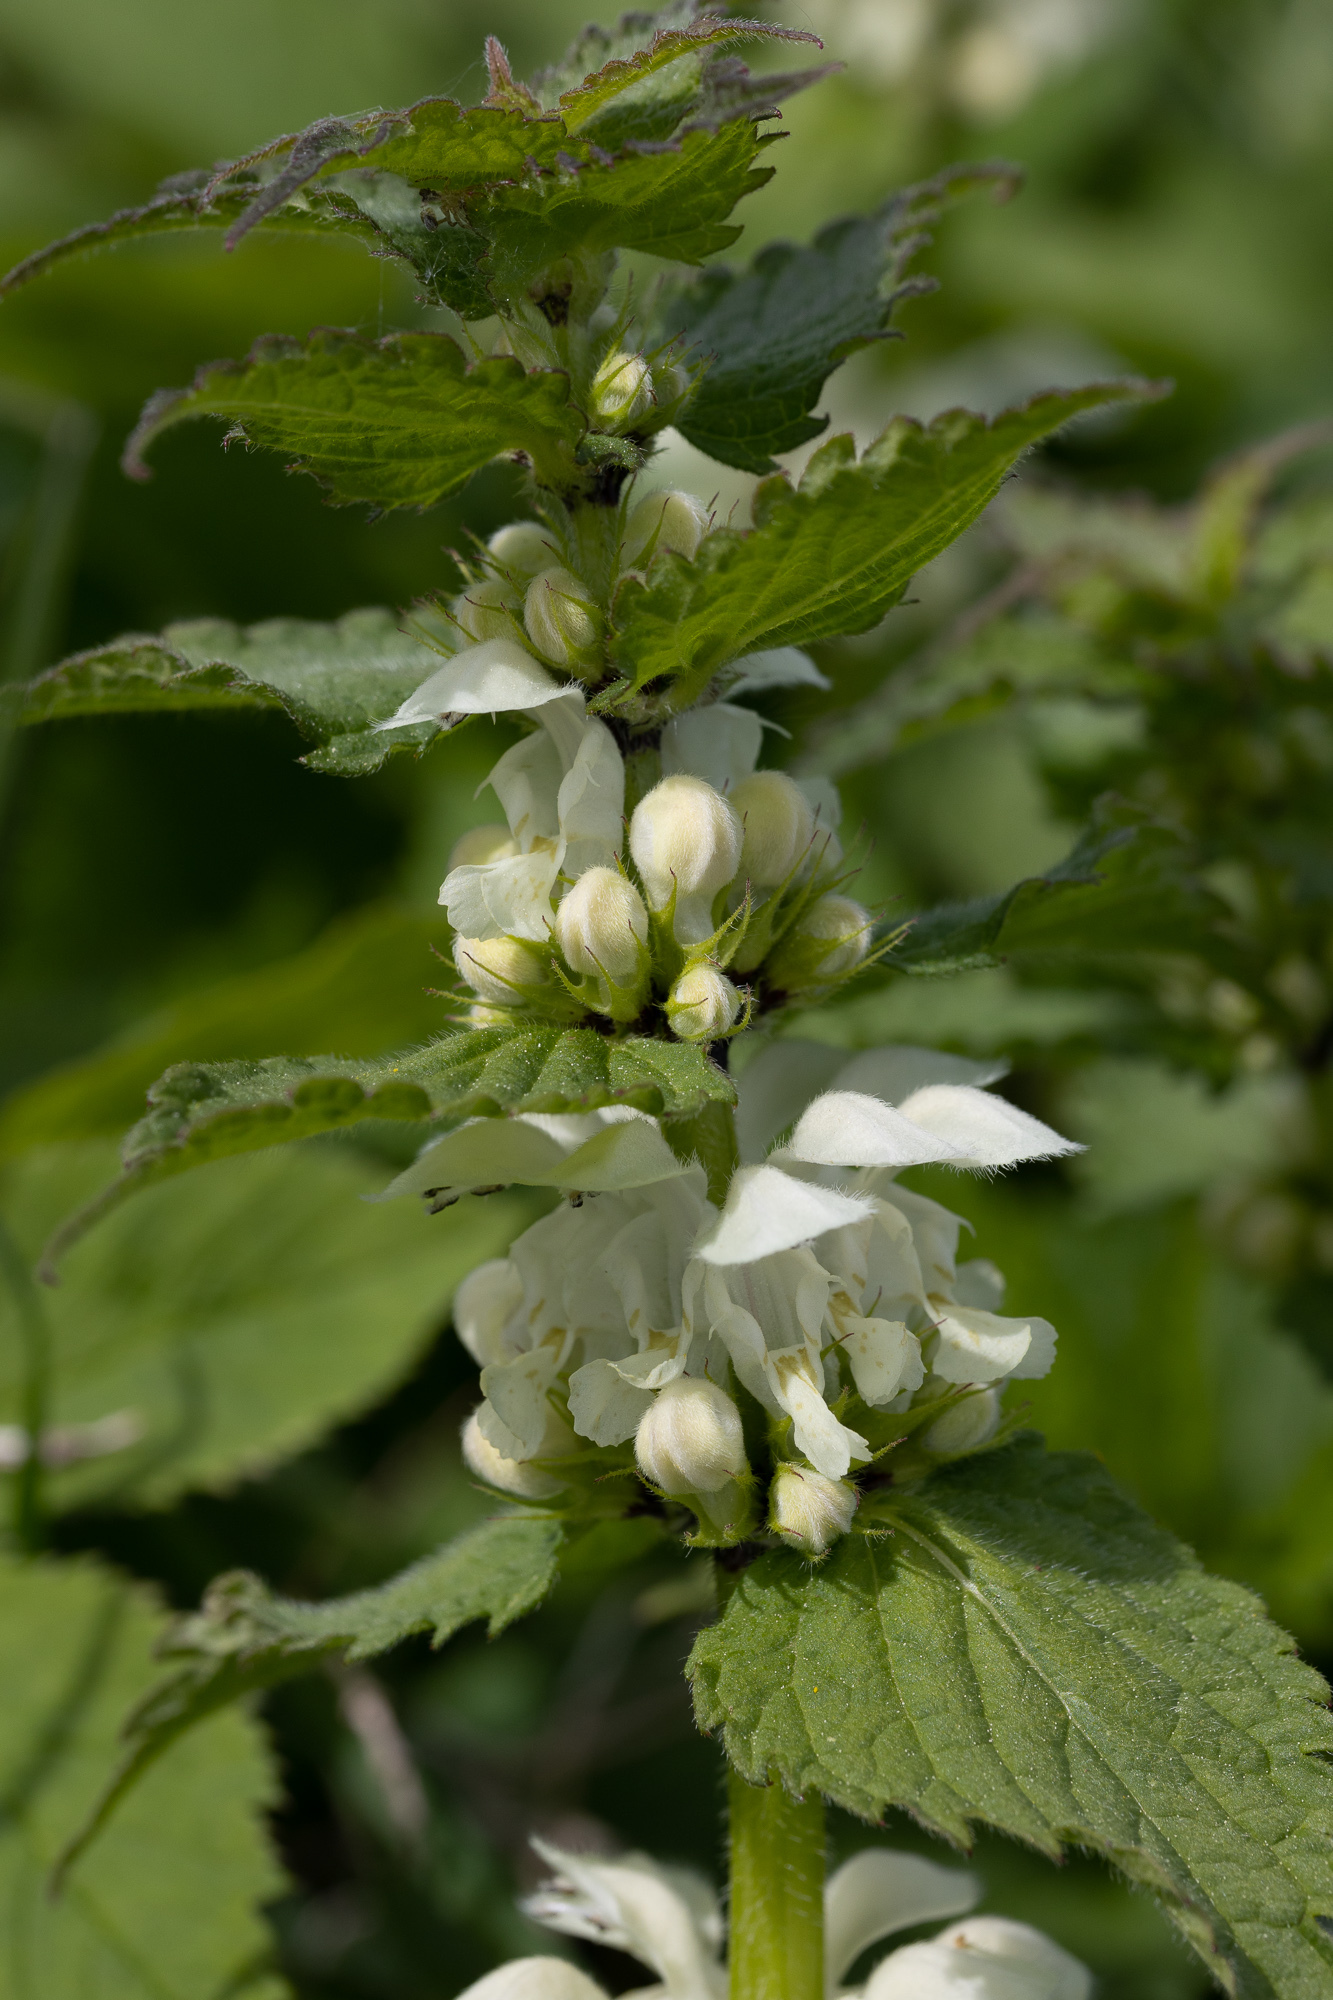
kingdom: Plantae
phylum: Tracheophyta
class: Magnoliopsida
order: Lamiales
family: Lamiaceae
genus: Lamium
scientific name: Lamium album
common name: White dead-nettle
